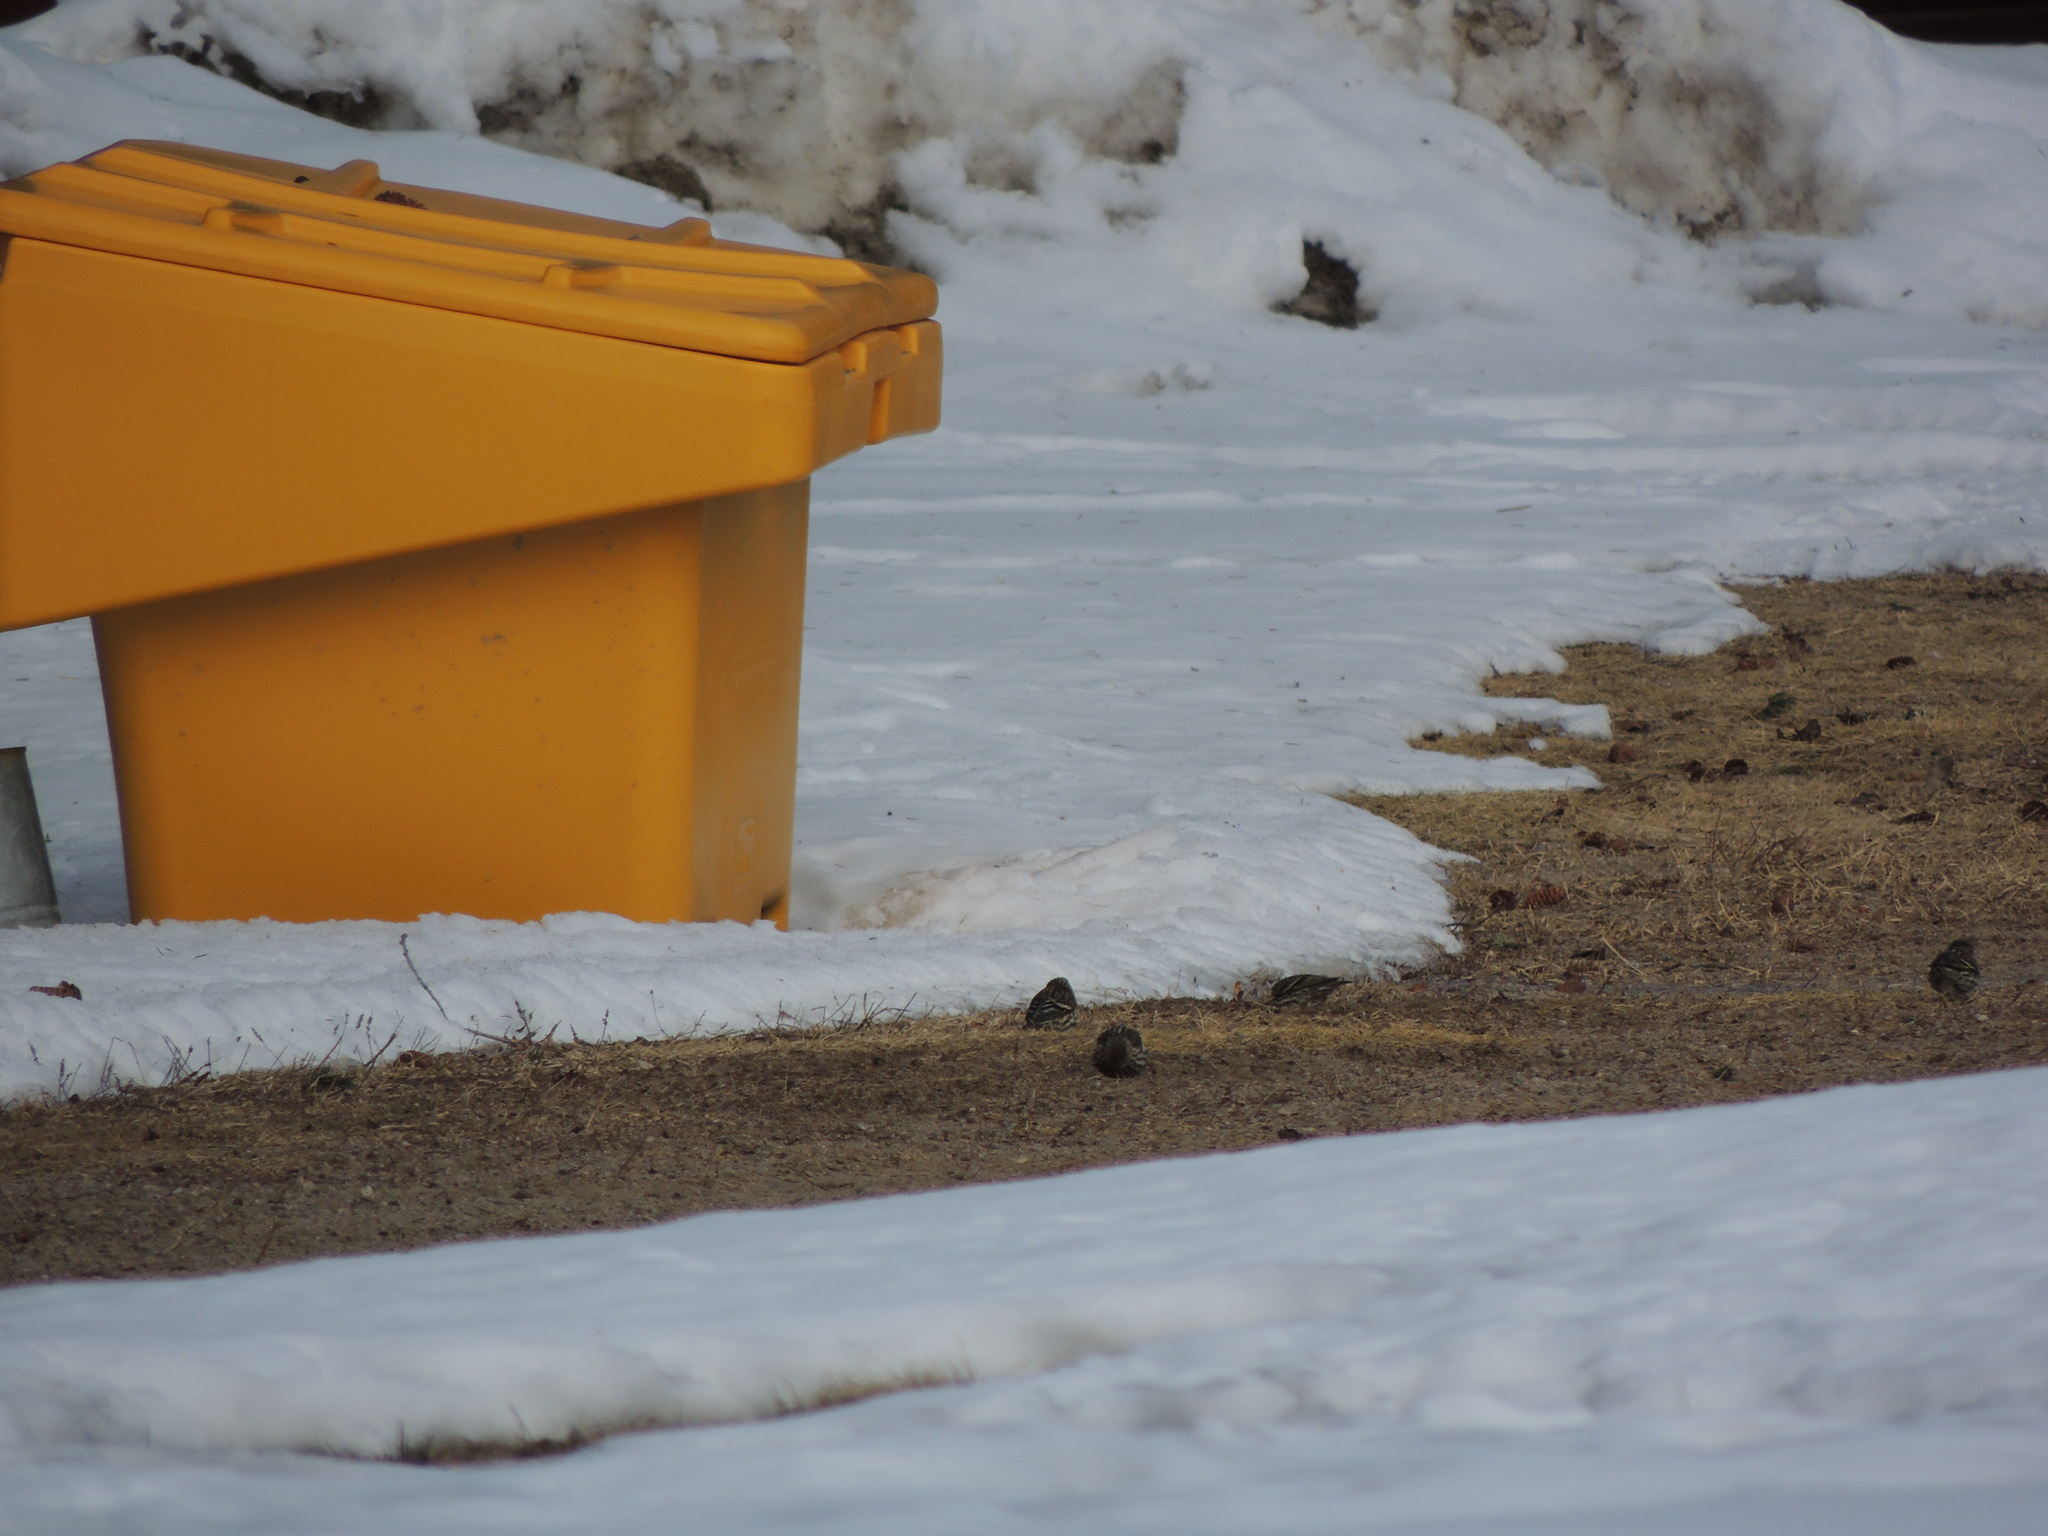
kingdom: Animalia
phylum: Chordata
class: Aves
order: Passeriformes
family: Fringillidae
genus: Spinus
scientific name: Spinus pinus
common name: Pine siskin
